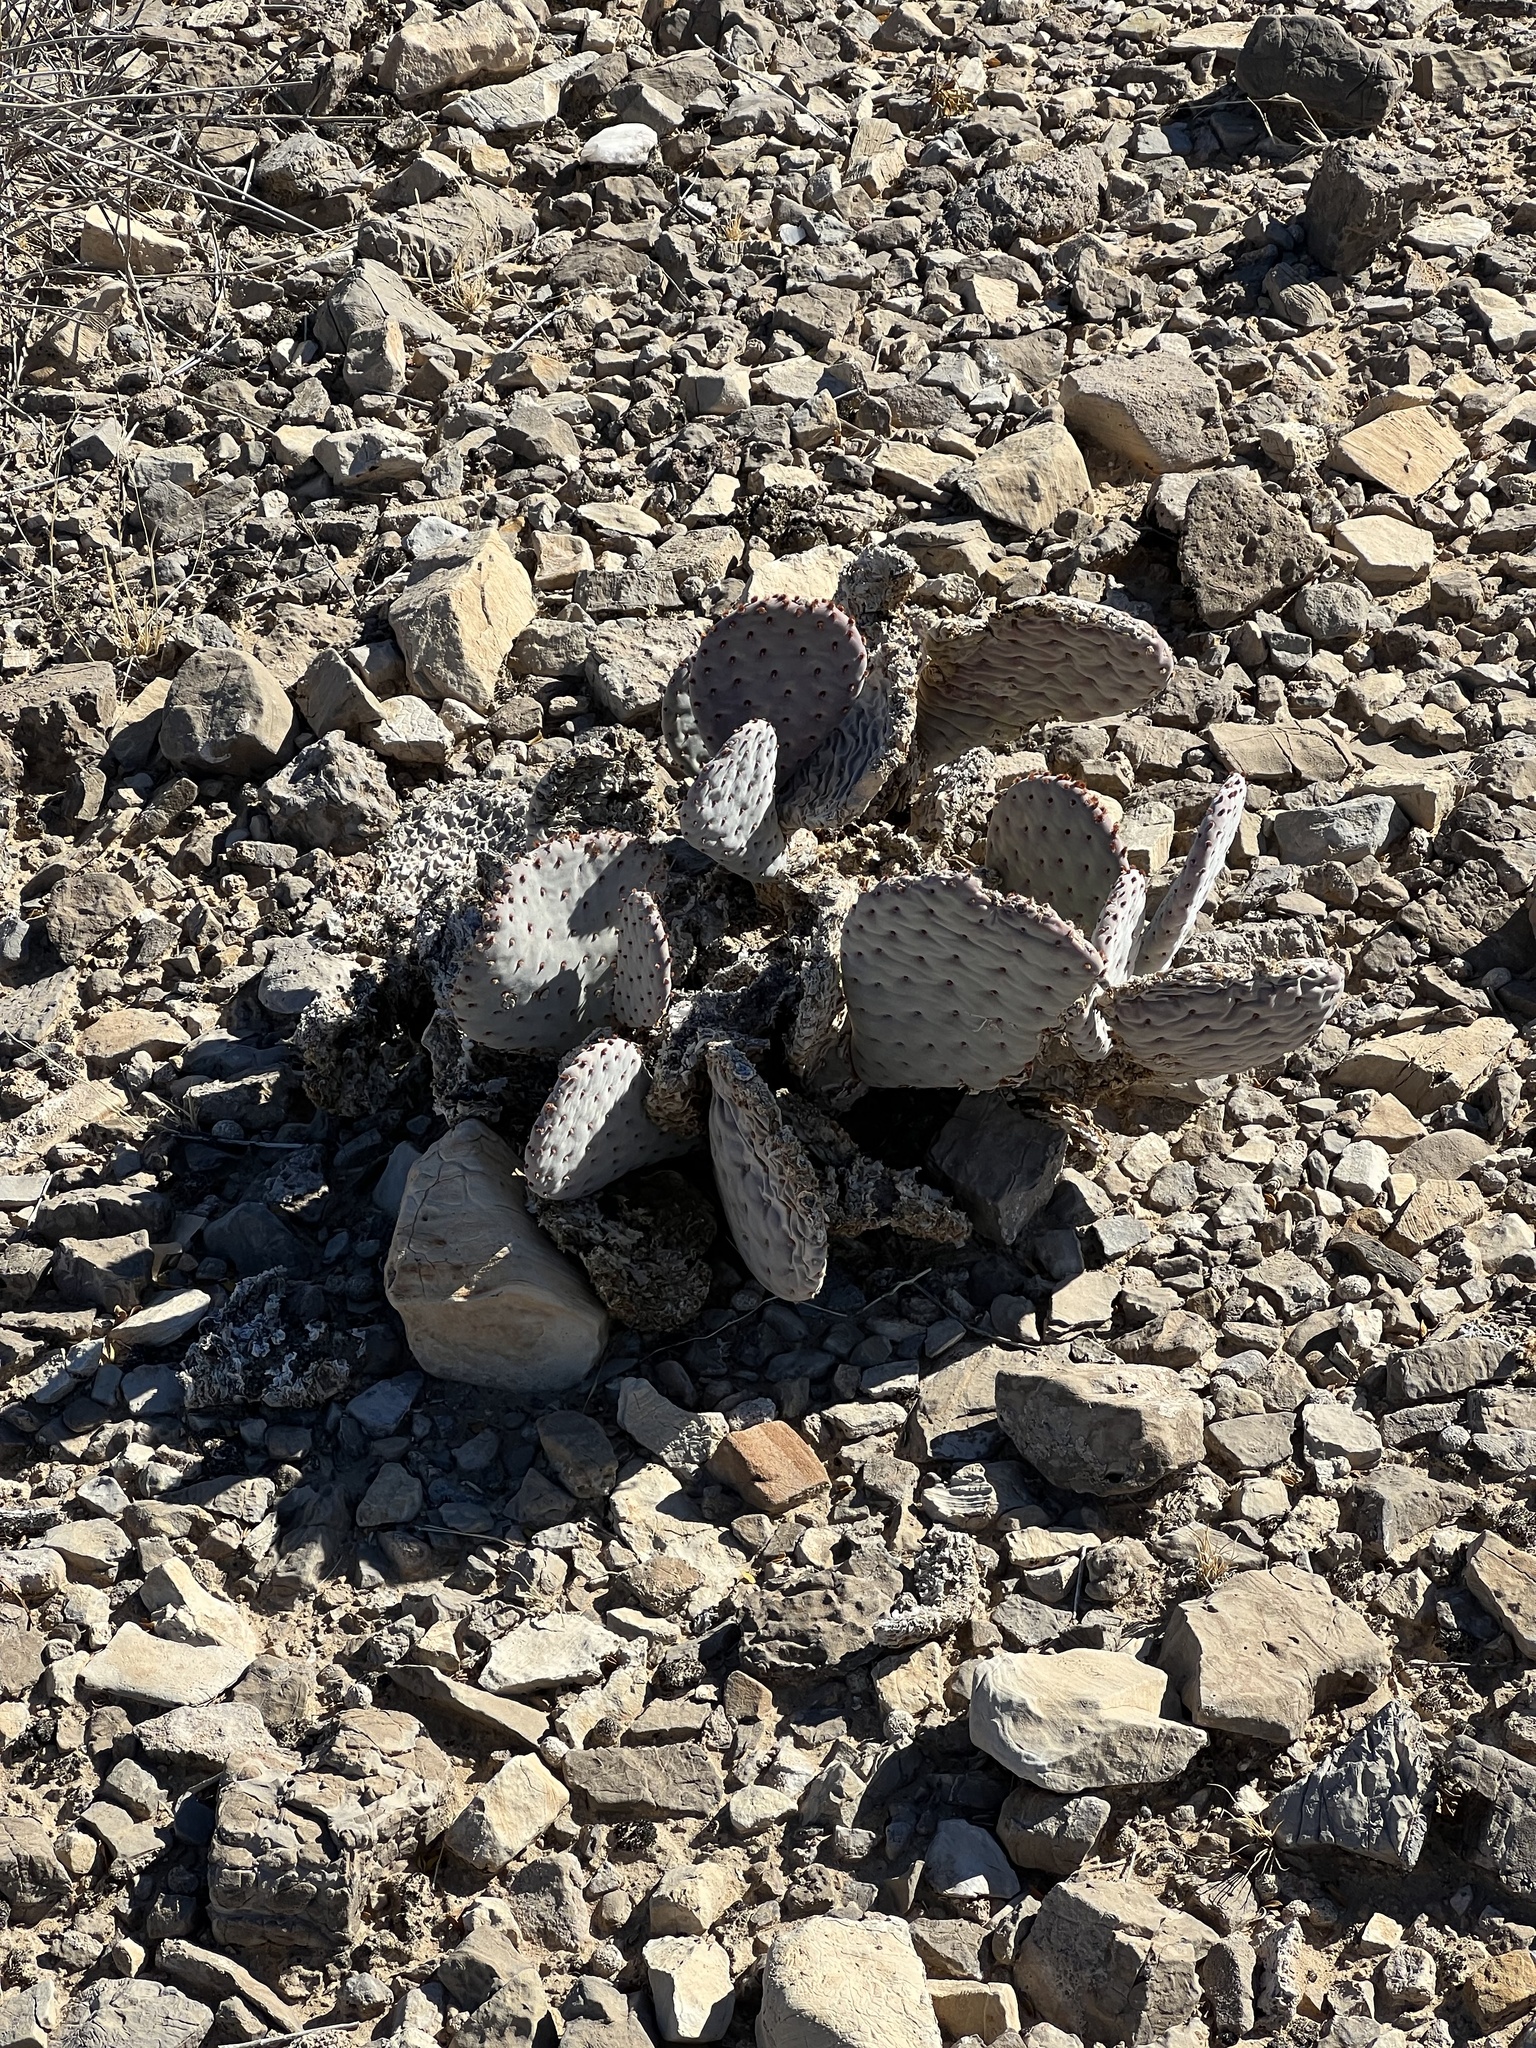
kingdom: Plantae
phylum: Tracheophyta
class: Magnoliopsida
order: Caryophyllales
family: Cactaceae
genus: Opuntia
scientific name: Opuntia basilaris
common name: Beavertail prickly-pear
